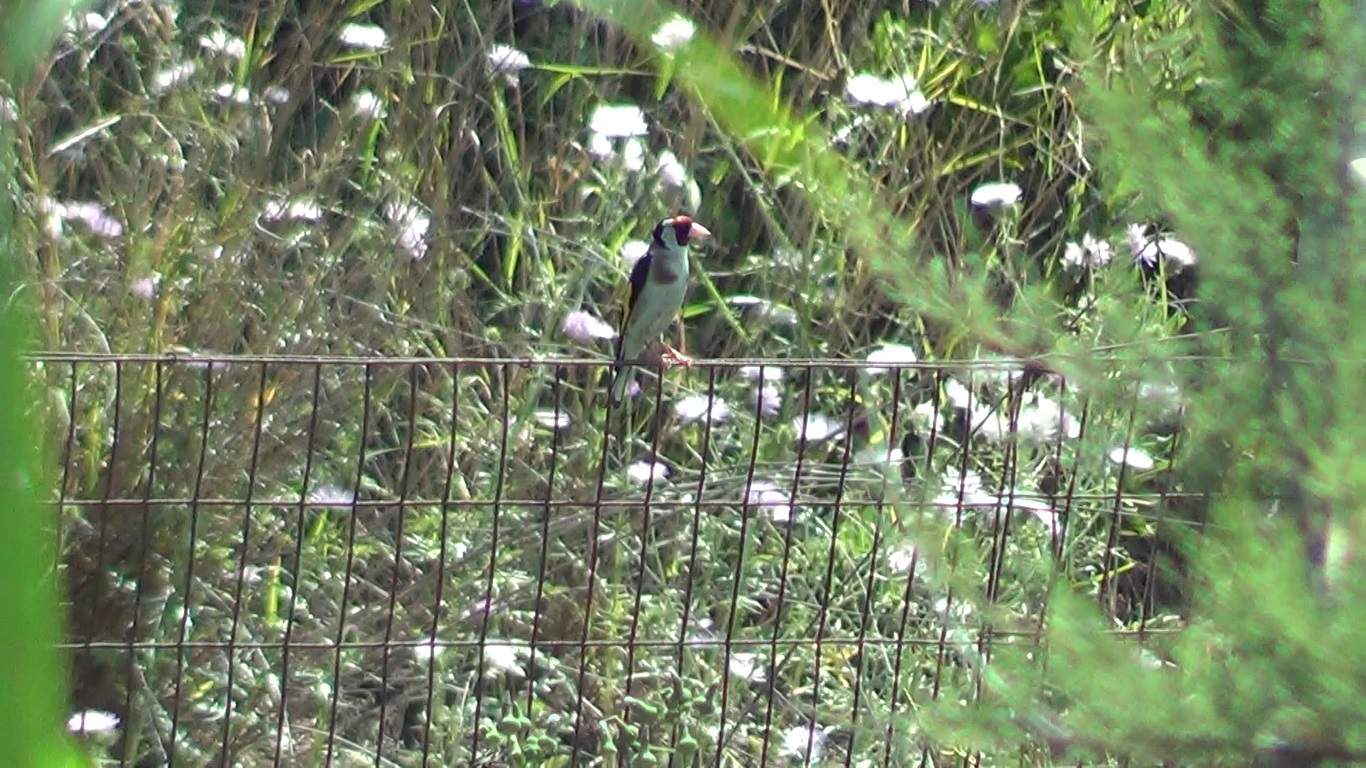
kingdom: Animalia
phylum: Chordata
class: Aves
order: Passeriformes
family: Fringillidae
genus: Carduelis
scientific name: Carduelis carduelis
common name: European goldfinch
